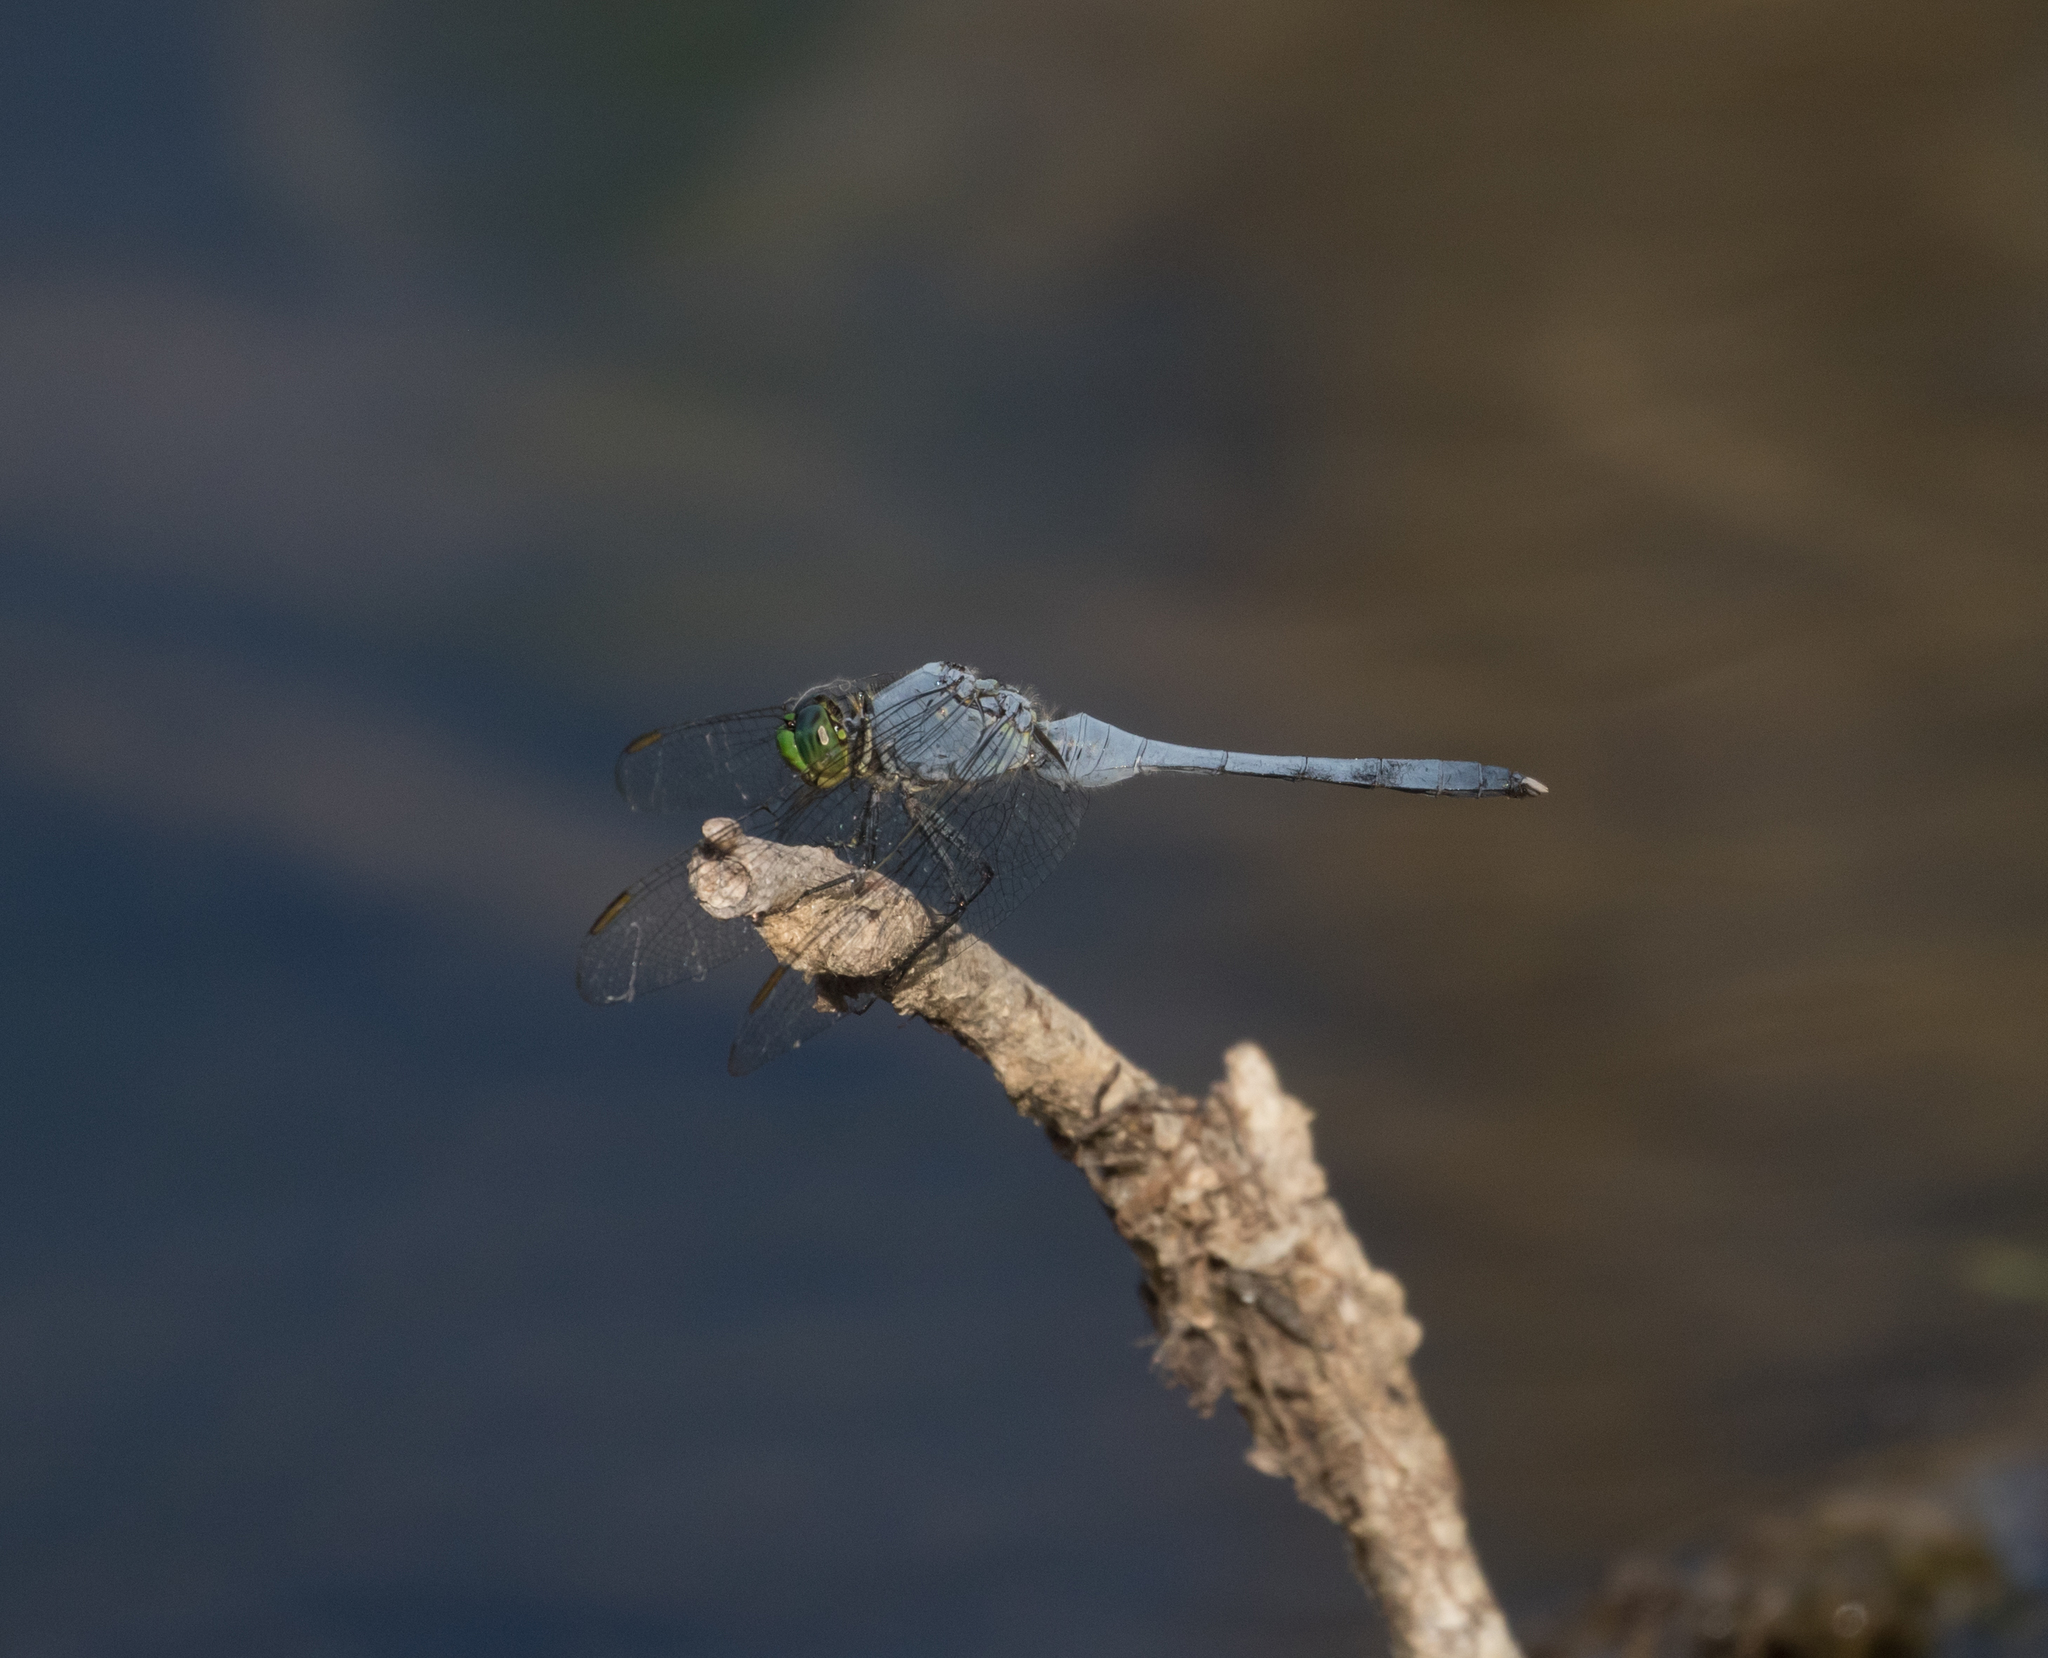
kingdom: Animalia
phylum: Arthropoda
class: Insecta
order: Odonata
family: Libellulidae
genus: Erythemis
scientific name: Erythemis simplicicollis
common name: Eastern pondhawk
